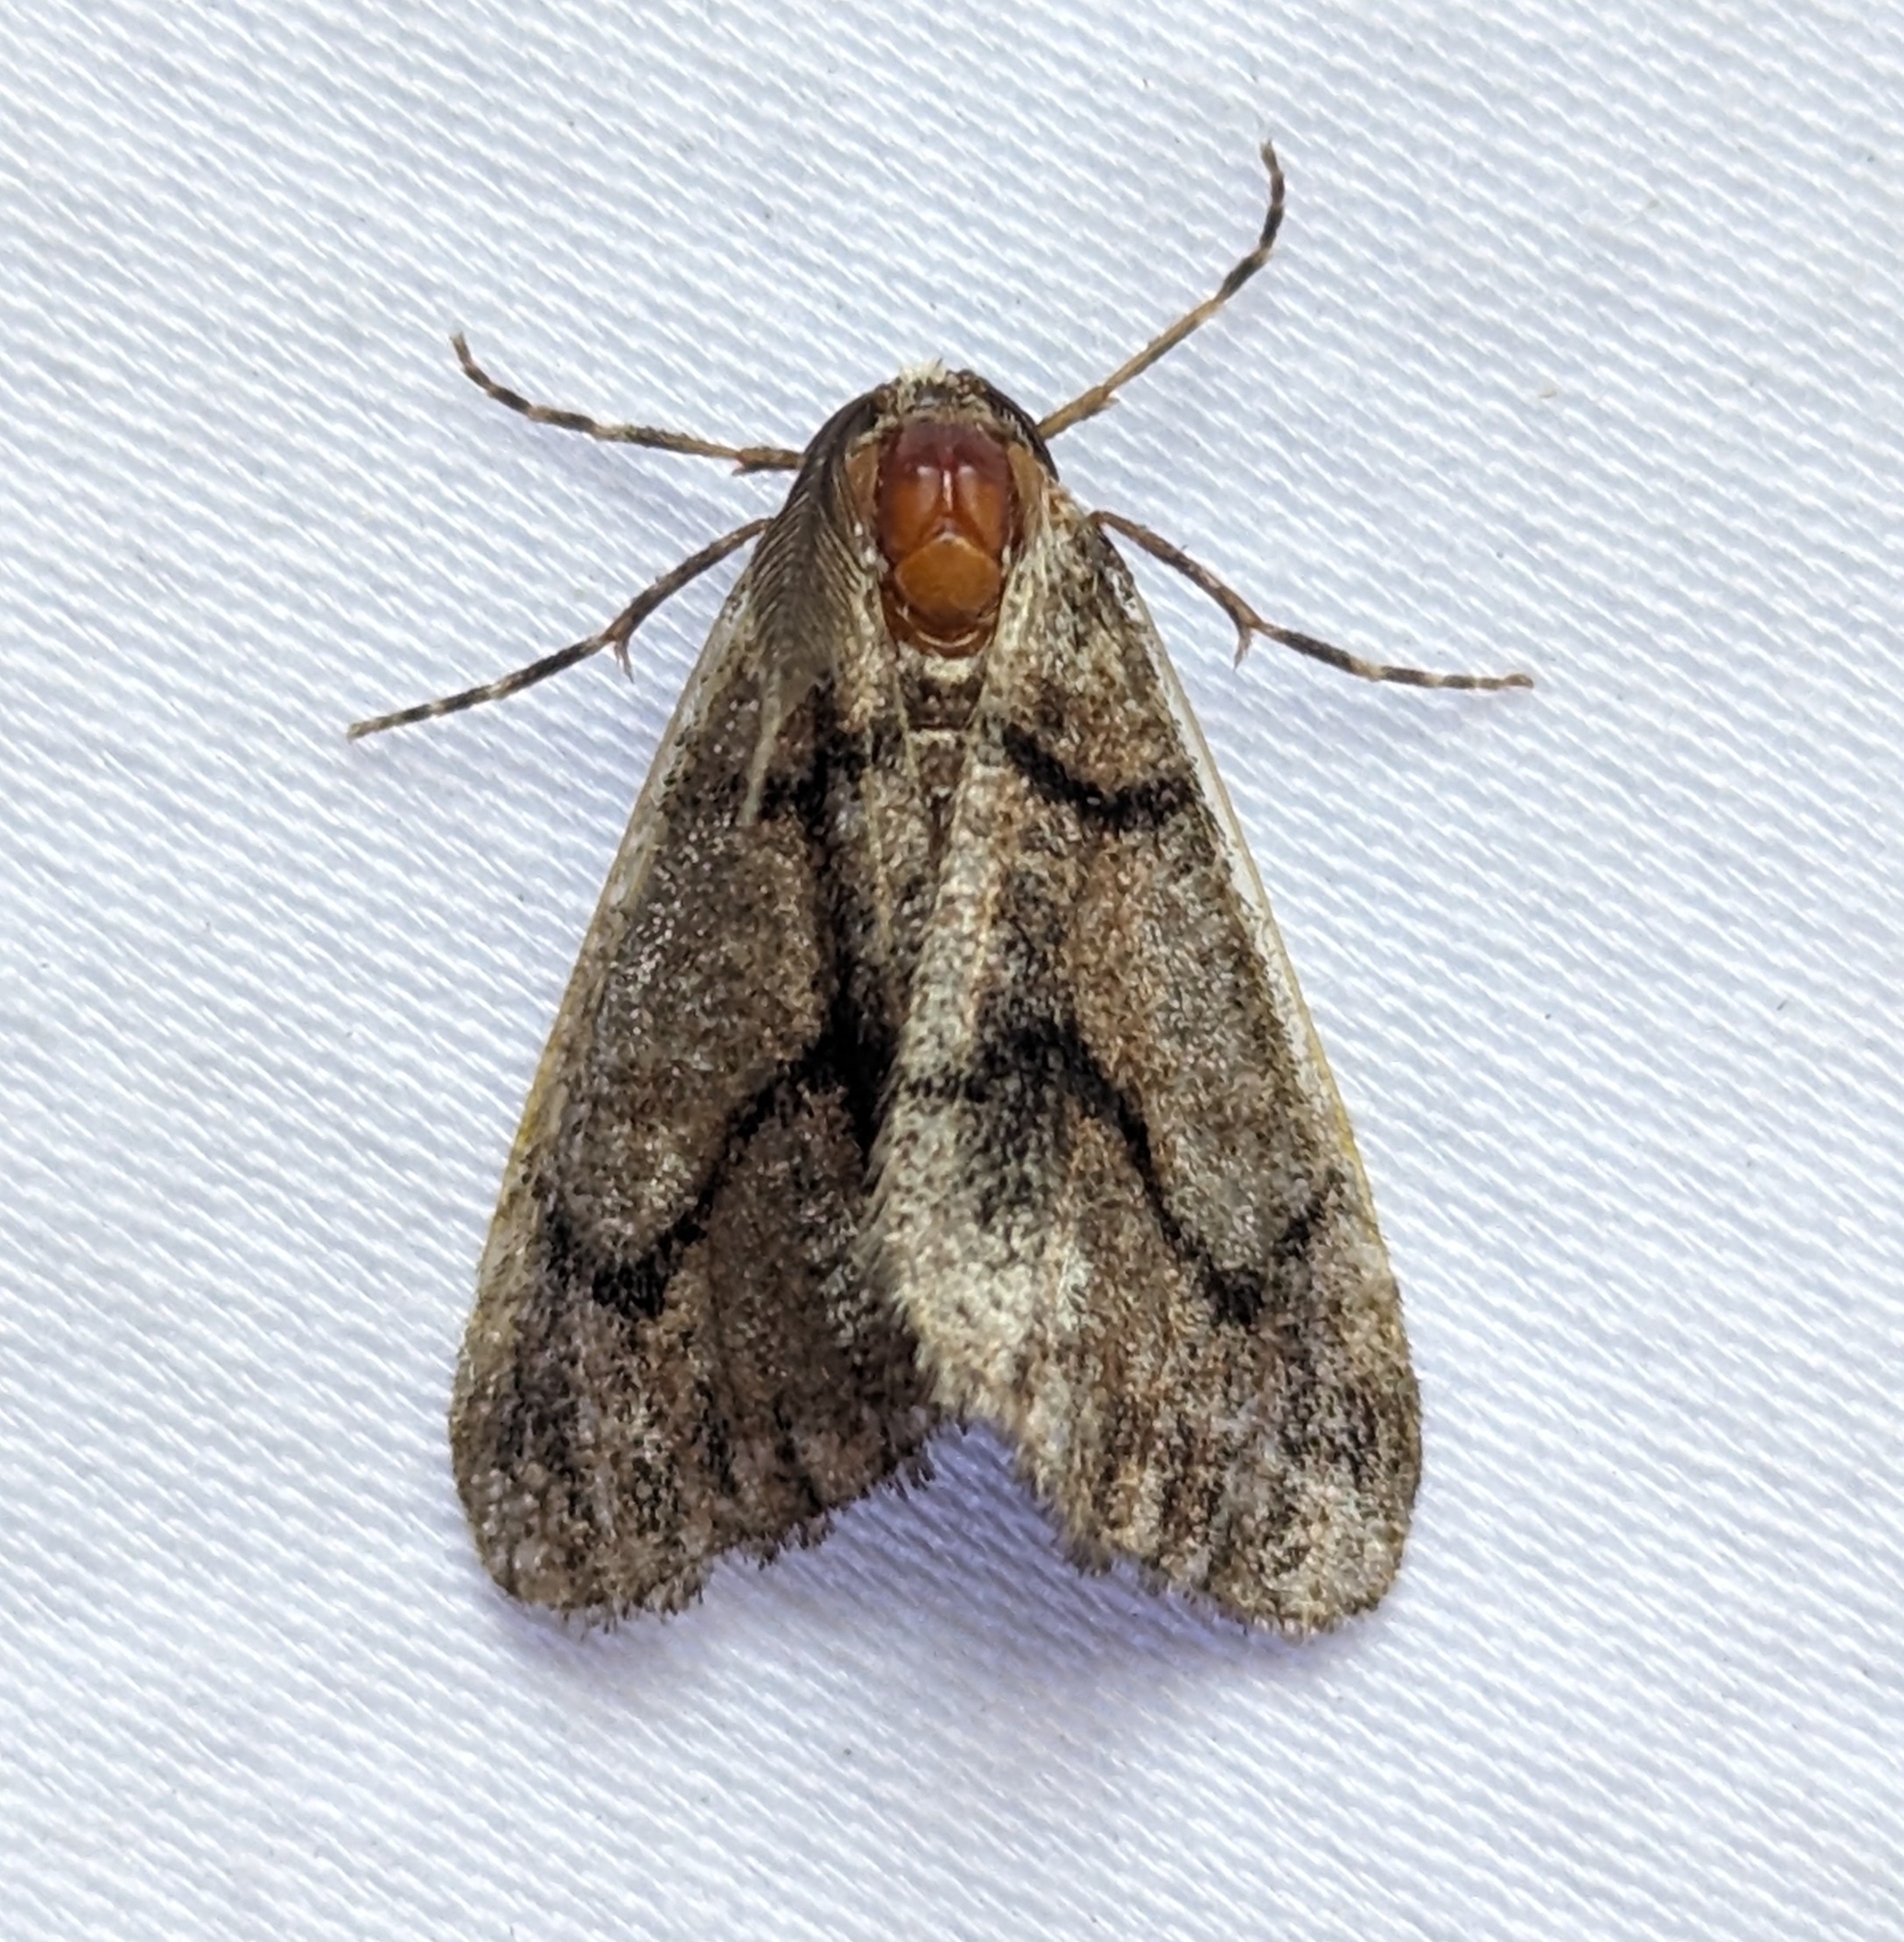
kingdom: Animalia
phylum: Arthropoda
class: Insecta
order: Lepidoptera
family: Geometridae
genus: Gabriola
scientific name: Gabriola dyari
